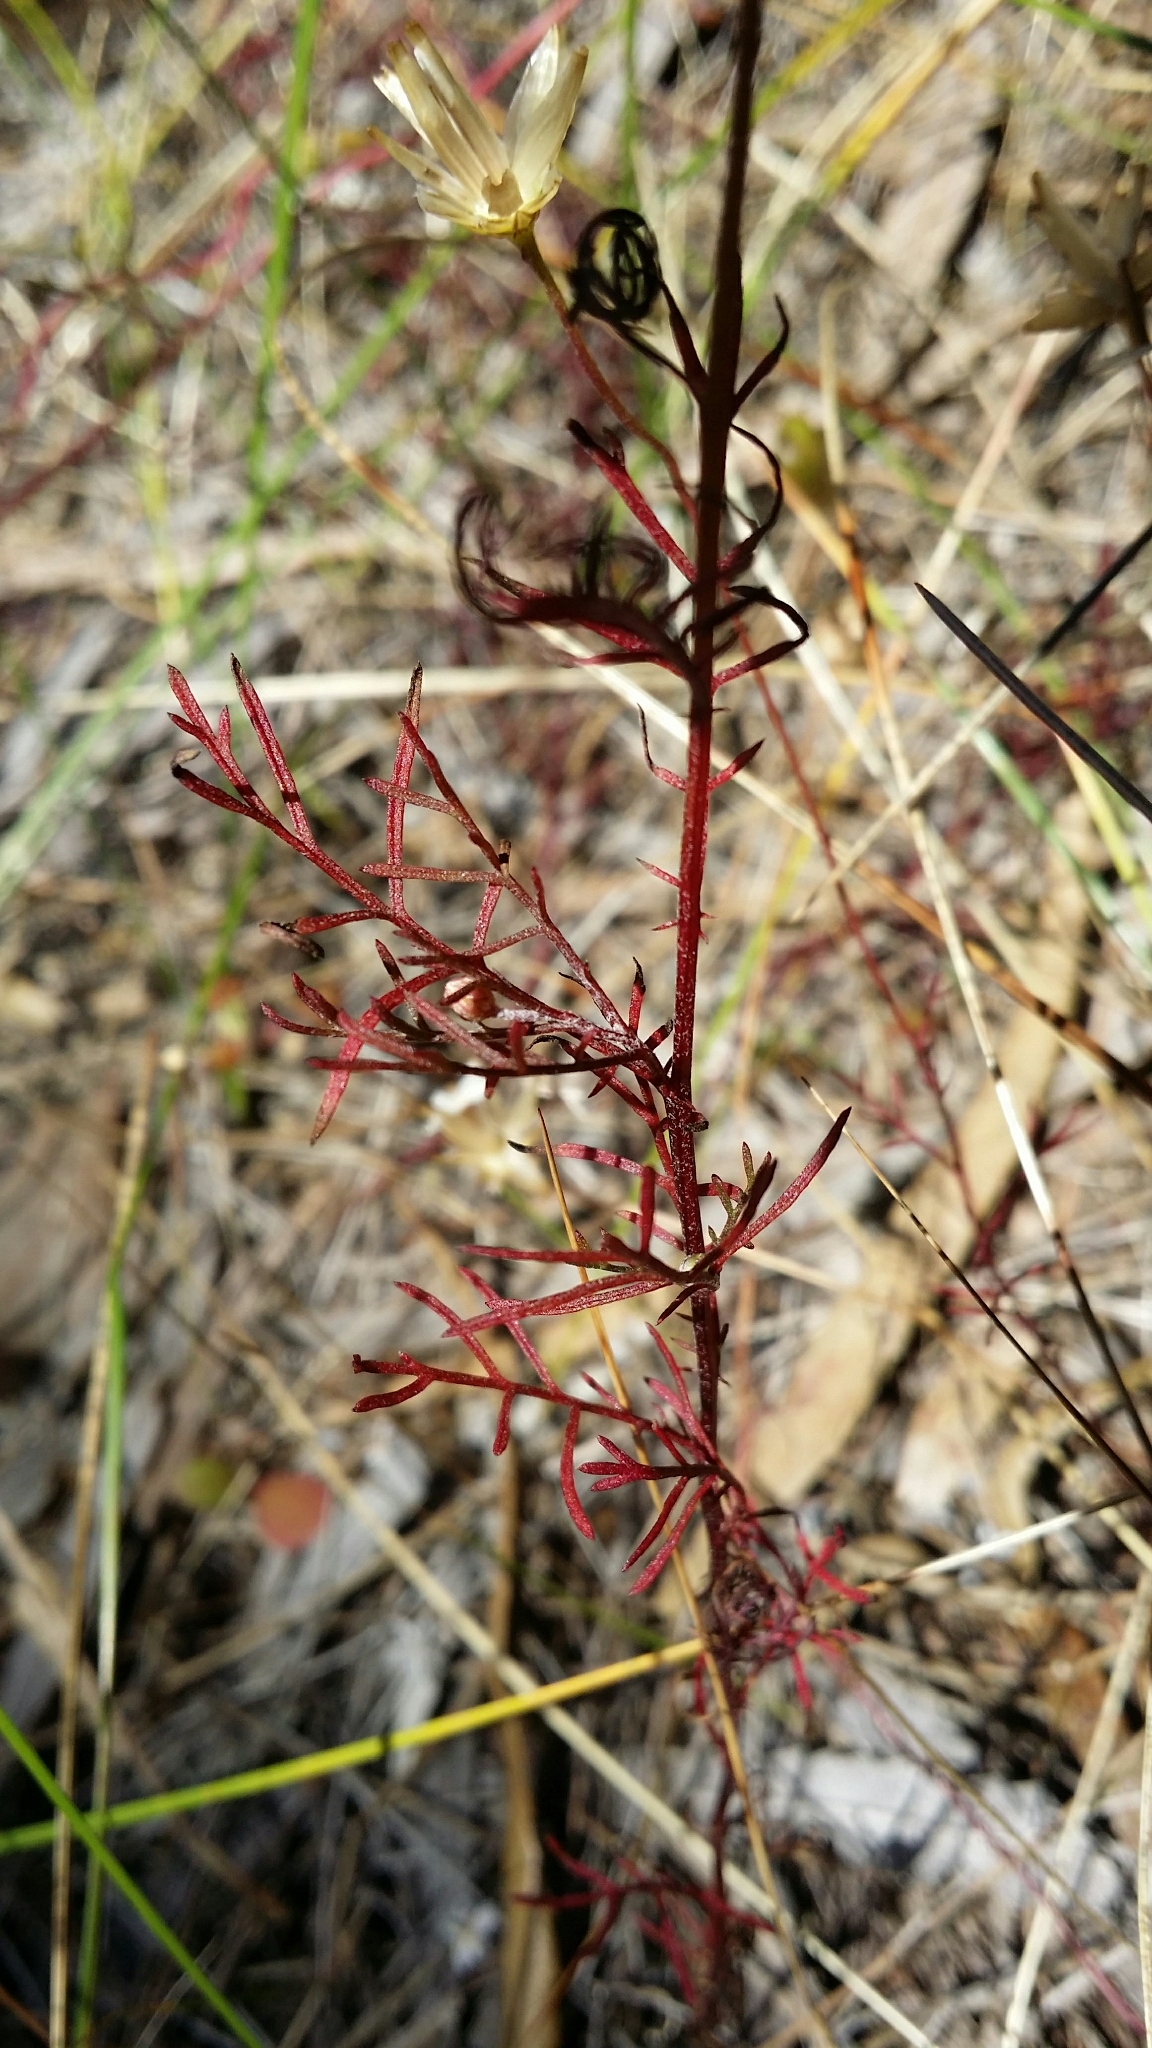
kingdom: Plantae
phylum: Tracheophyta
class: Magnoliopsida
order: Asterales
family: Asteraceae
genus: Ursinia
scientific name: Ursinia anthemoides
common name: Ursinia
